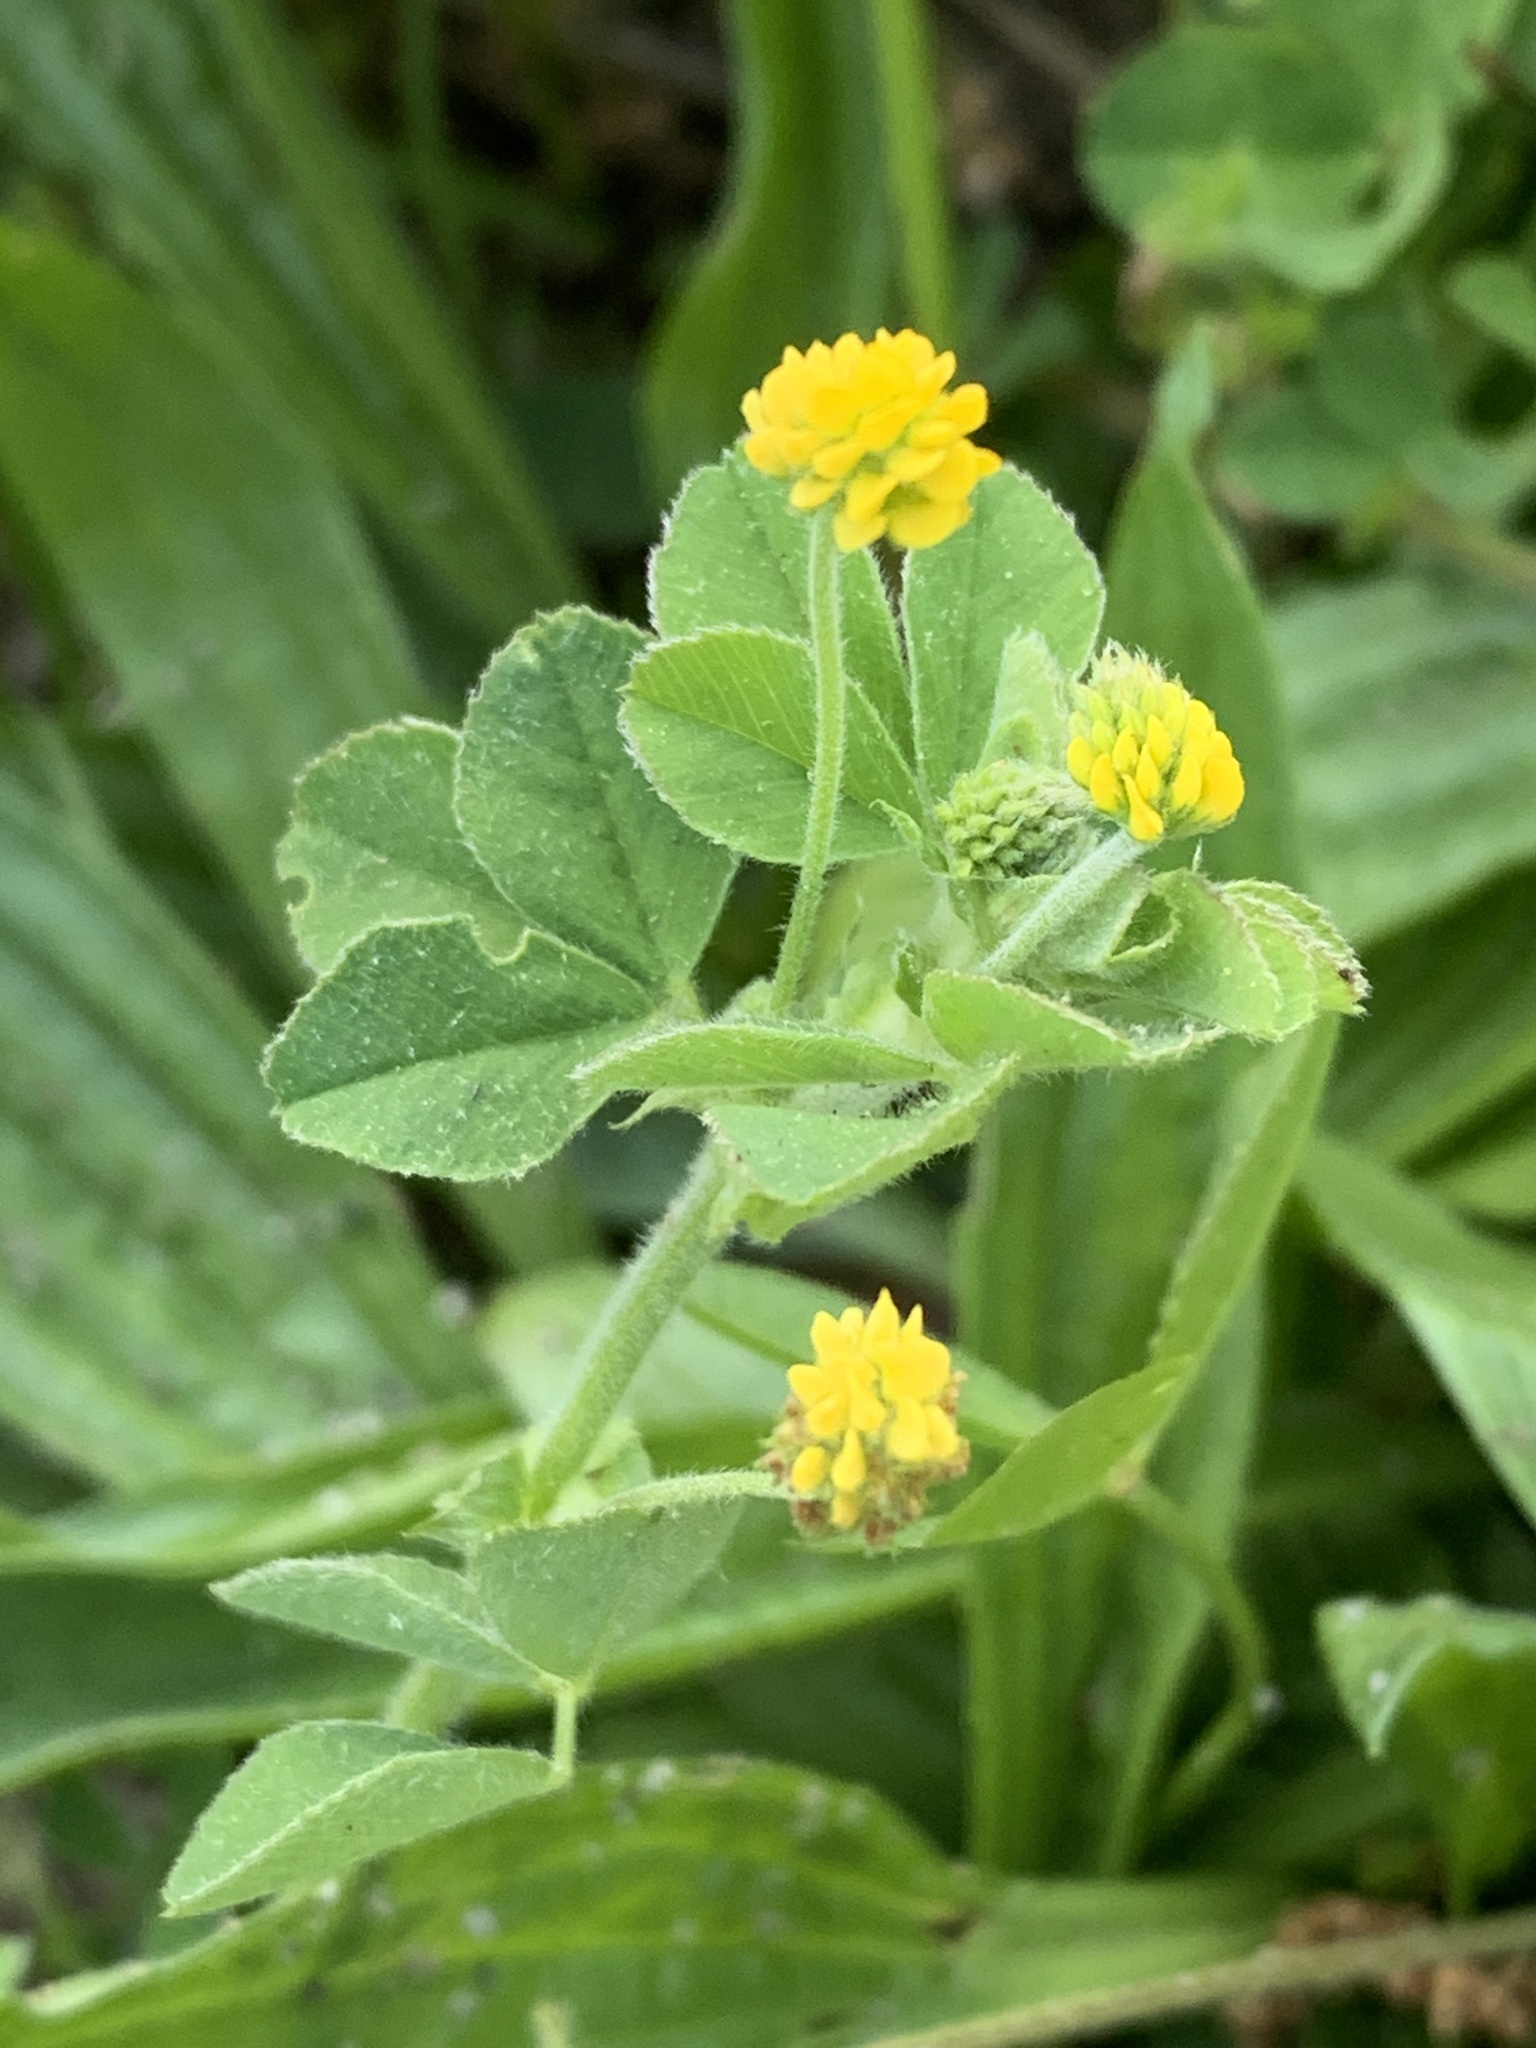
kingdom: Plantae
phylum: Tracheophyta
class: Magnoliopsida
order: Fabales
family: Fabaceae
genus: Medicago
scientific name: Medicago lupulina
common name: Black medick
